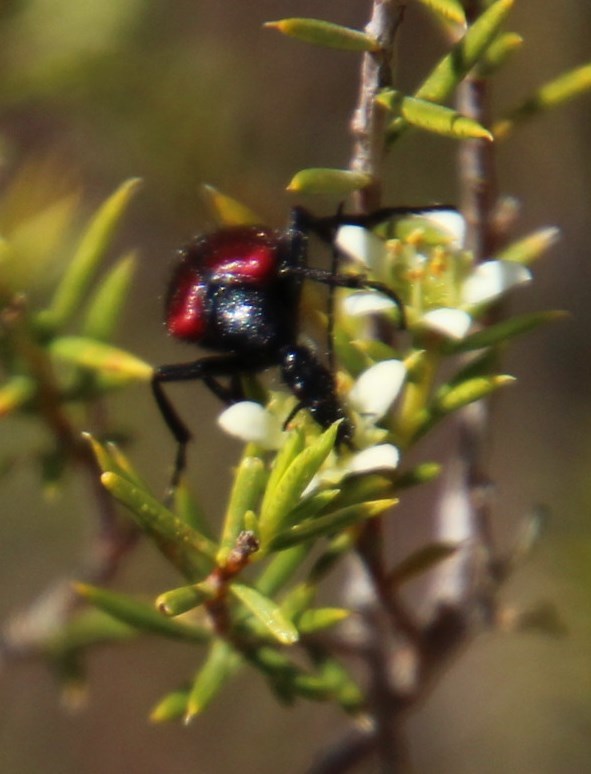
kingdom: Plantae
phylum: Tracheophyta
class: Magnoliopsida
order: Sapindales
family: Rutaceae
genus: Diosma
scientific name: Diosma acmaeophylla
